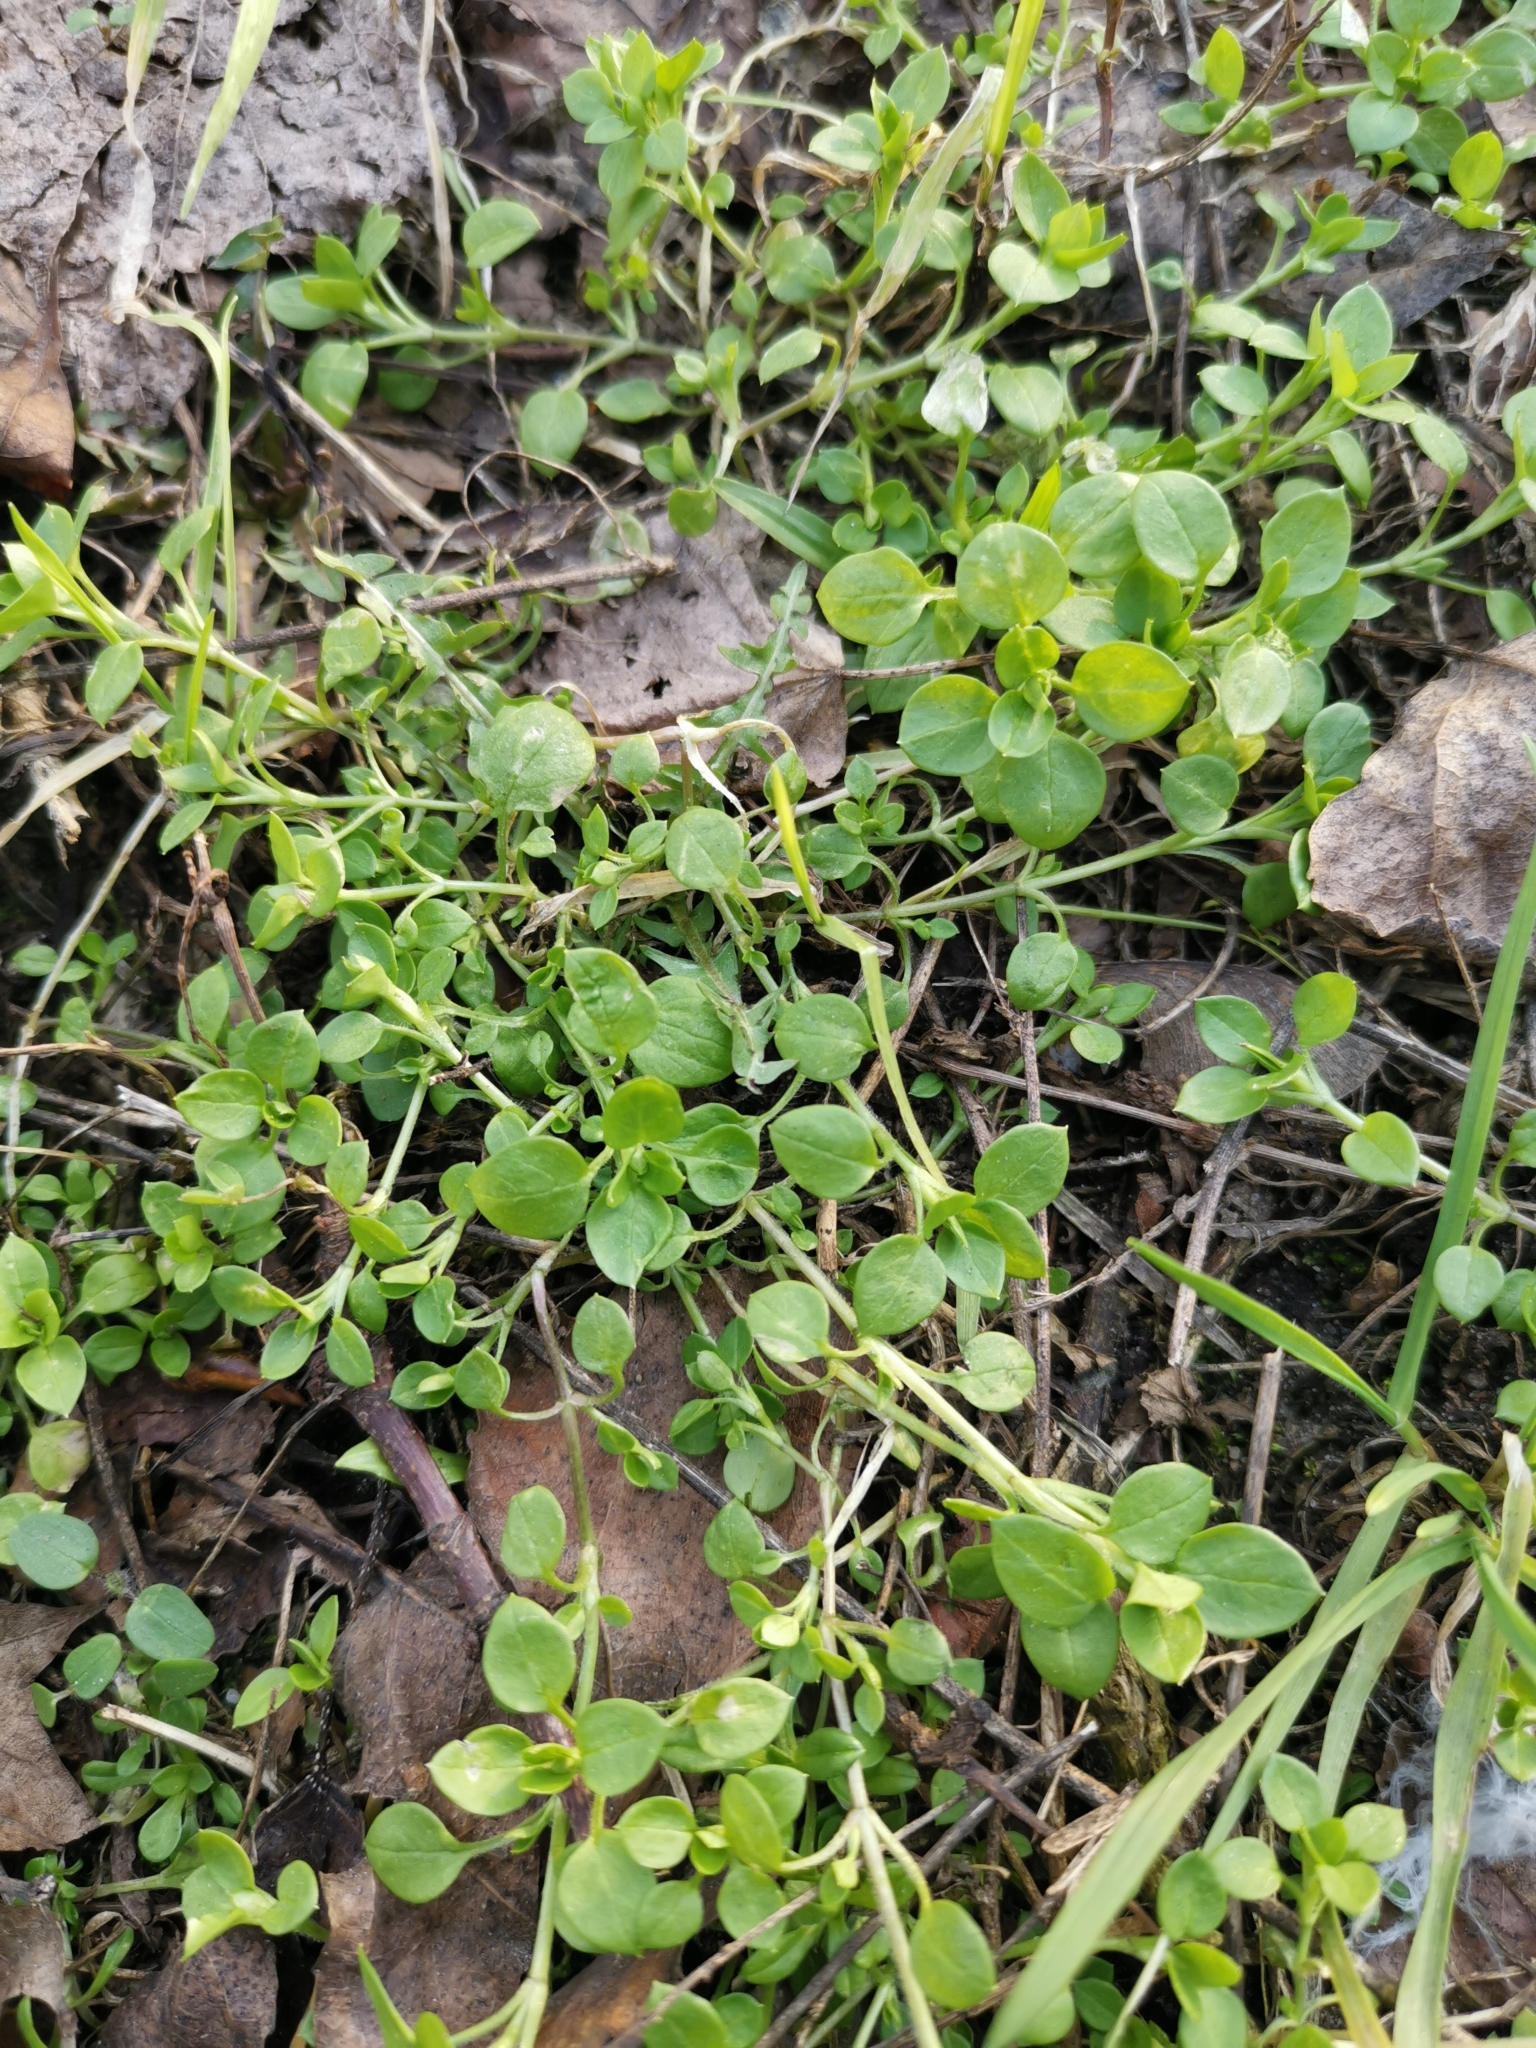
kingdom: Plantae
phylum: Tracheophyta
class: Magnoliopsida
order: Caryophyllales
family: Caryophyllaceae
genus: Stellaria
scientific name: Stellaria media
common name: Common chickweed
